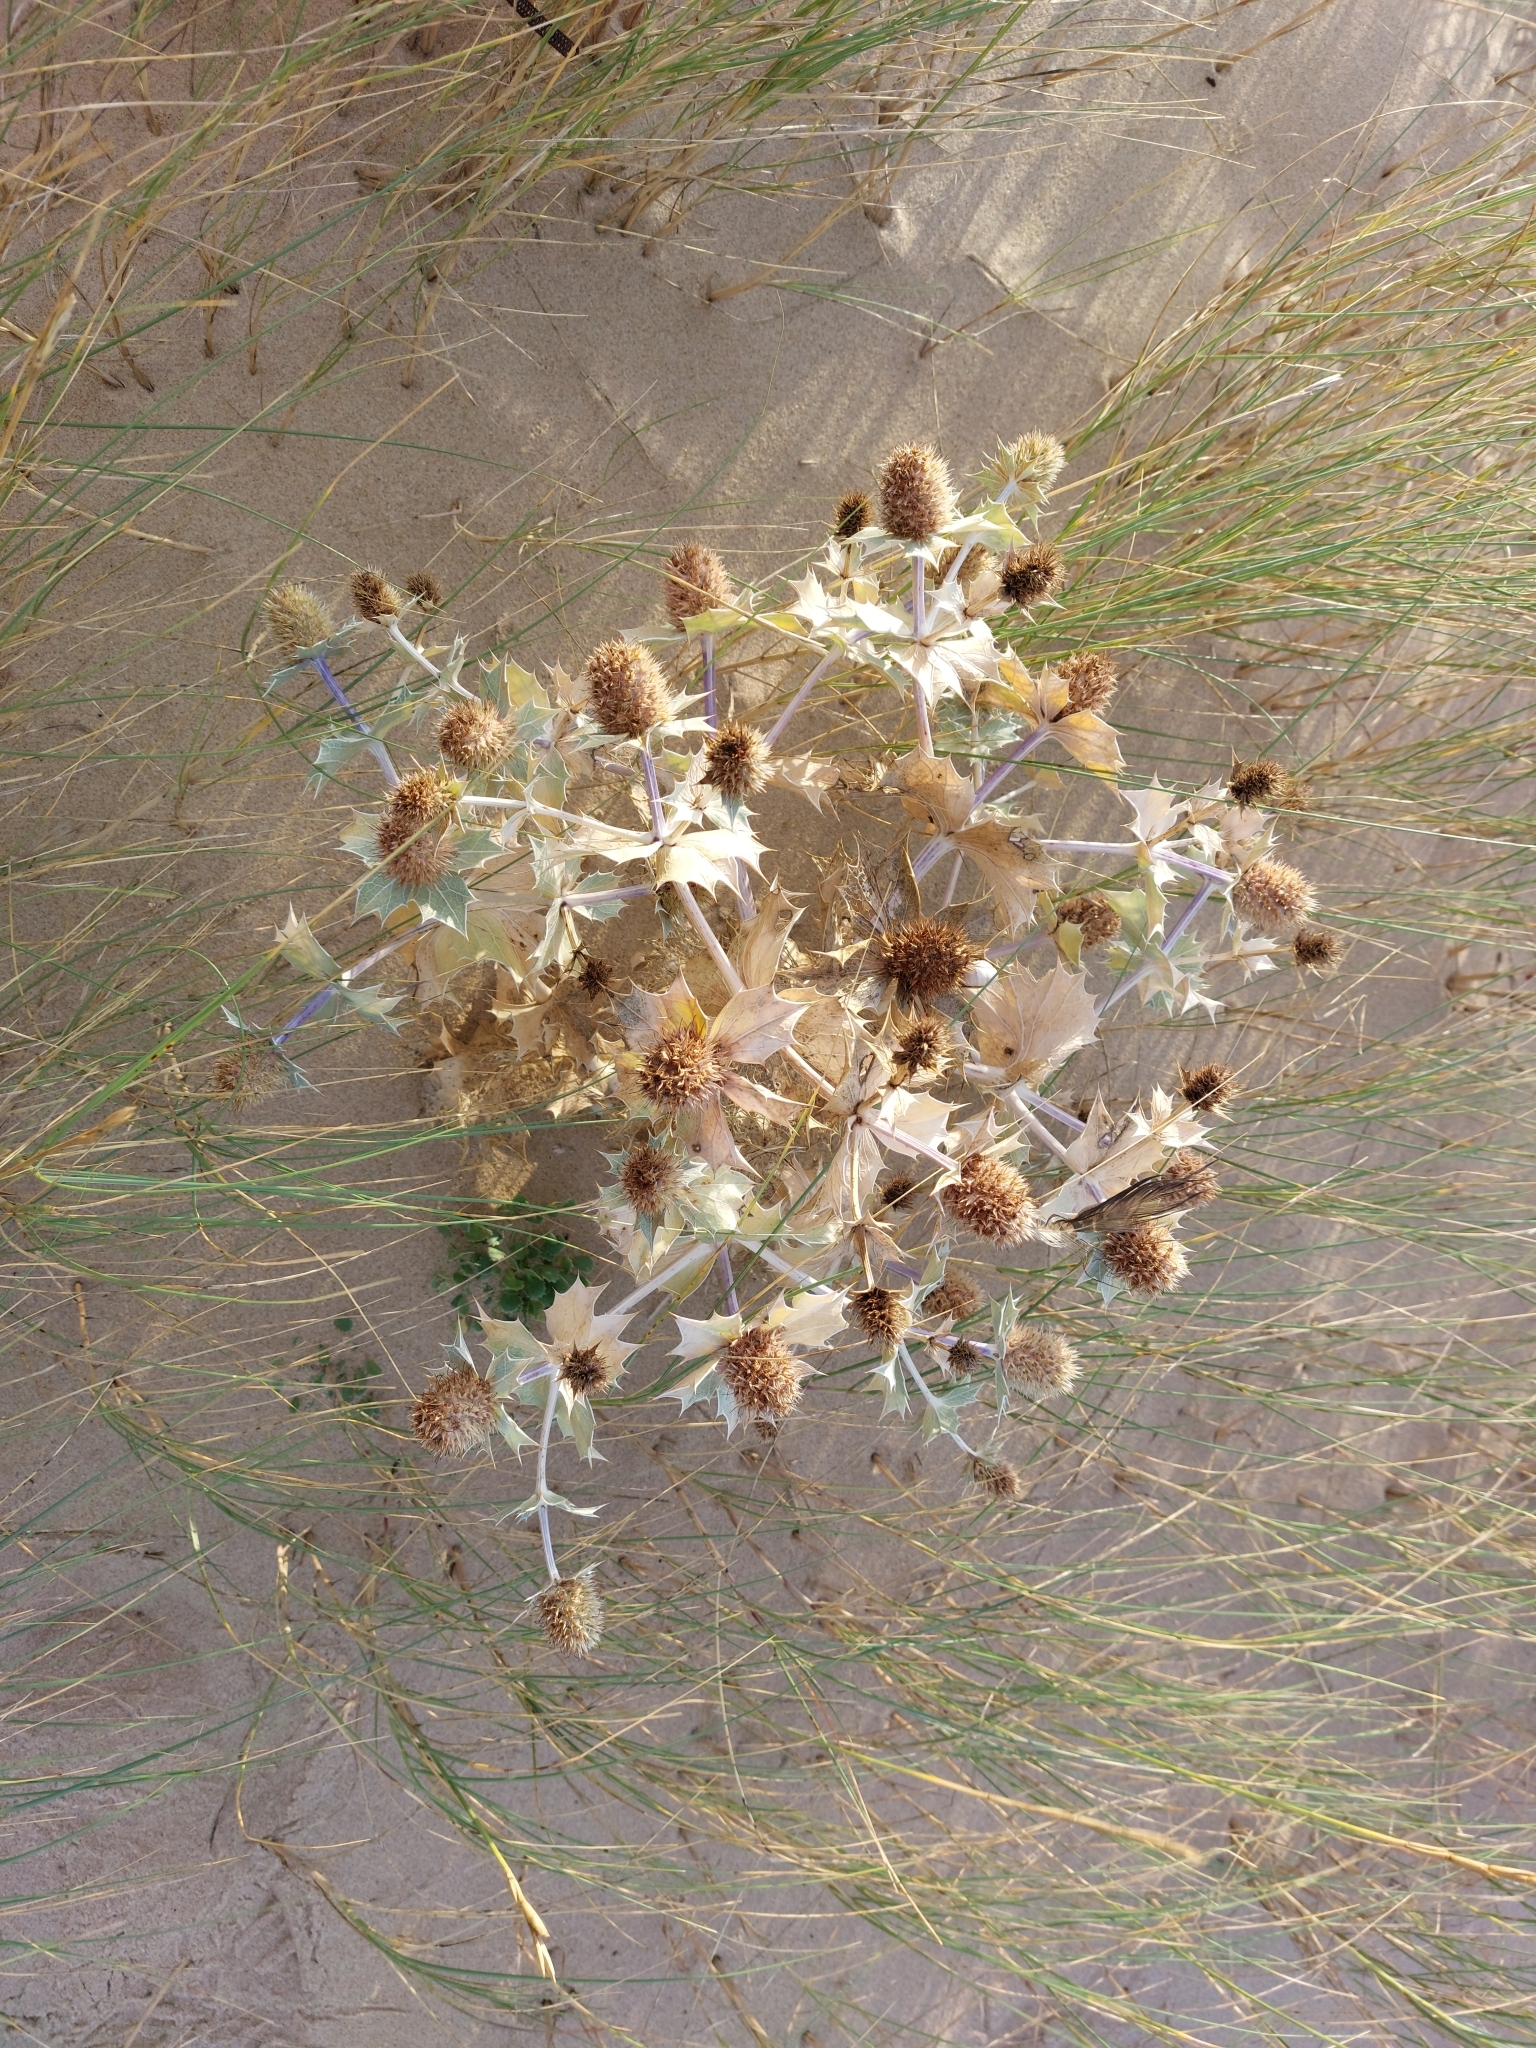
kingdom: Plantae
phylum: Tracheophyta
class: Magnoliopsida
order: Apiales
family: Apiaceae
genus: Eryngium
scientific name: Eryngium maritimum
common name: Sea-holly
